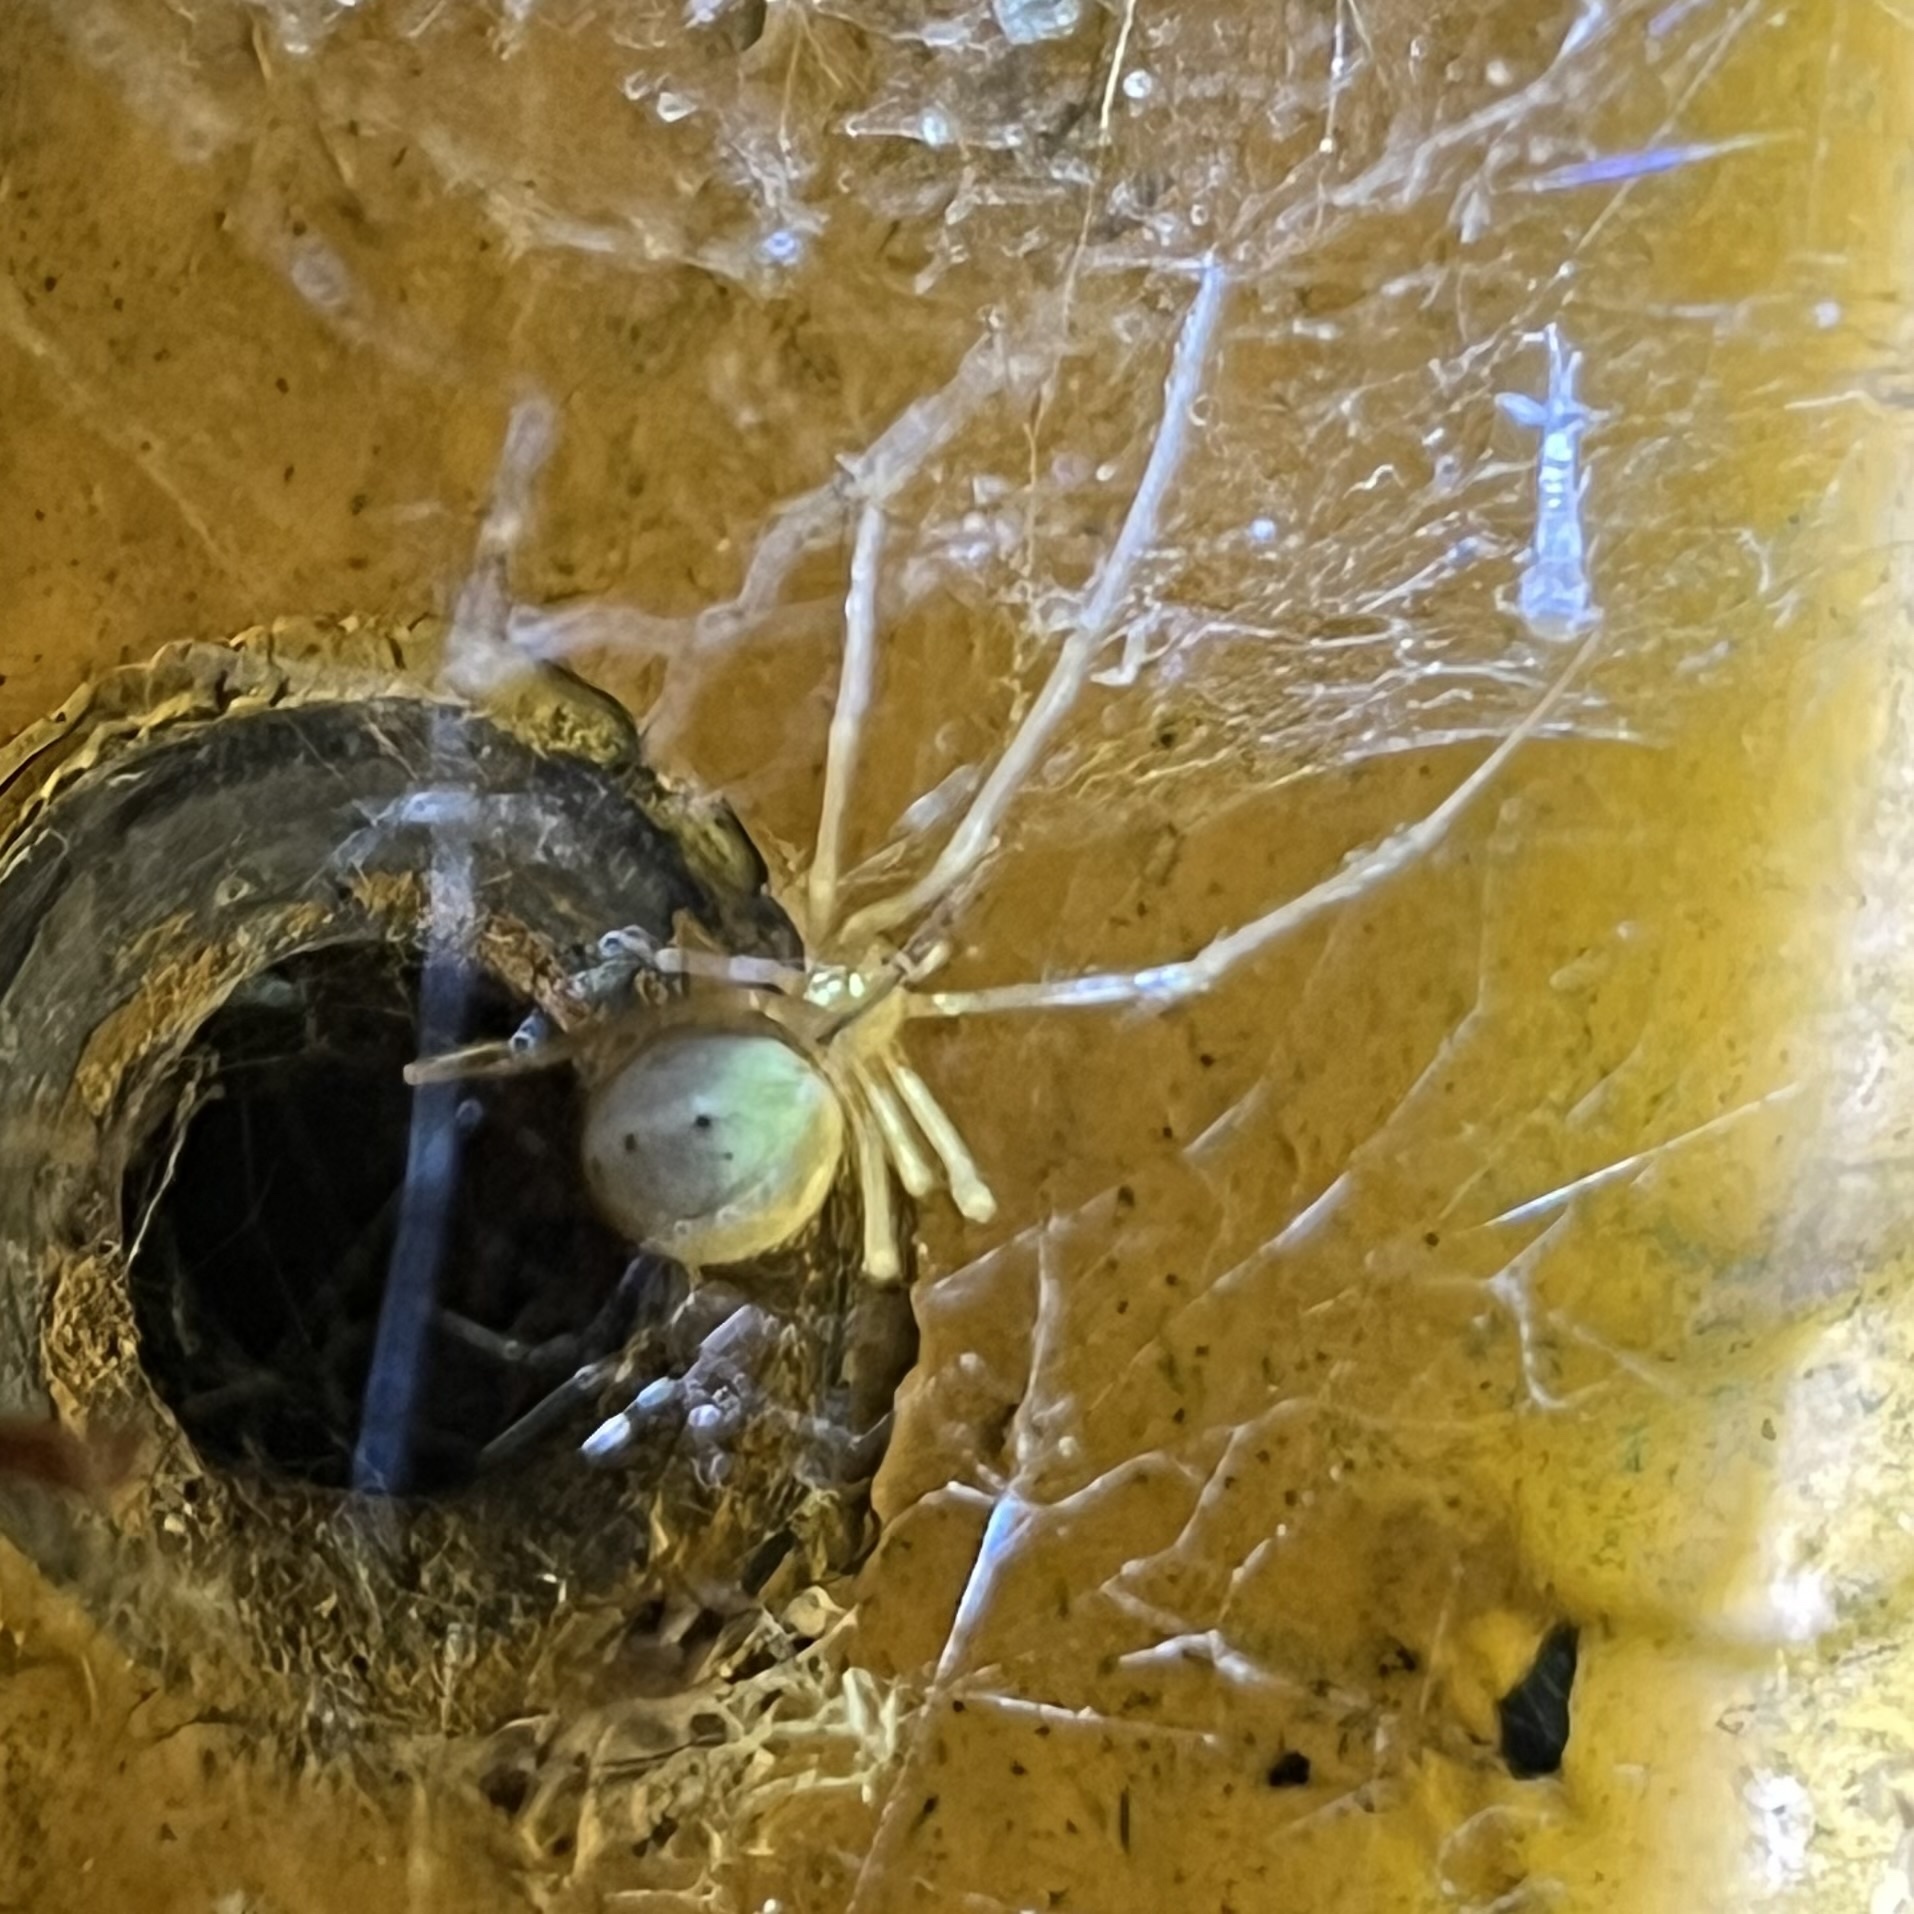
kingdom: Animalia
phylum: Arthropoda
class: Arachnida
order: Araneae
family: Theridiidae
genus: Enoplognatha
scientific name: Enoplognatha ovata
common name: Common candy-striped spider
